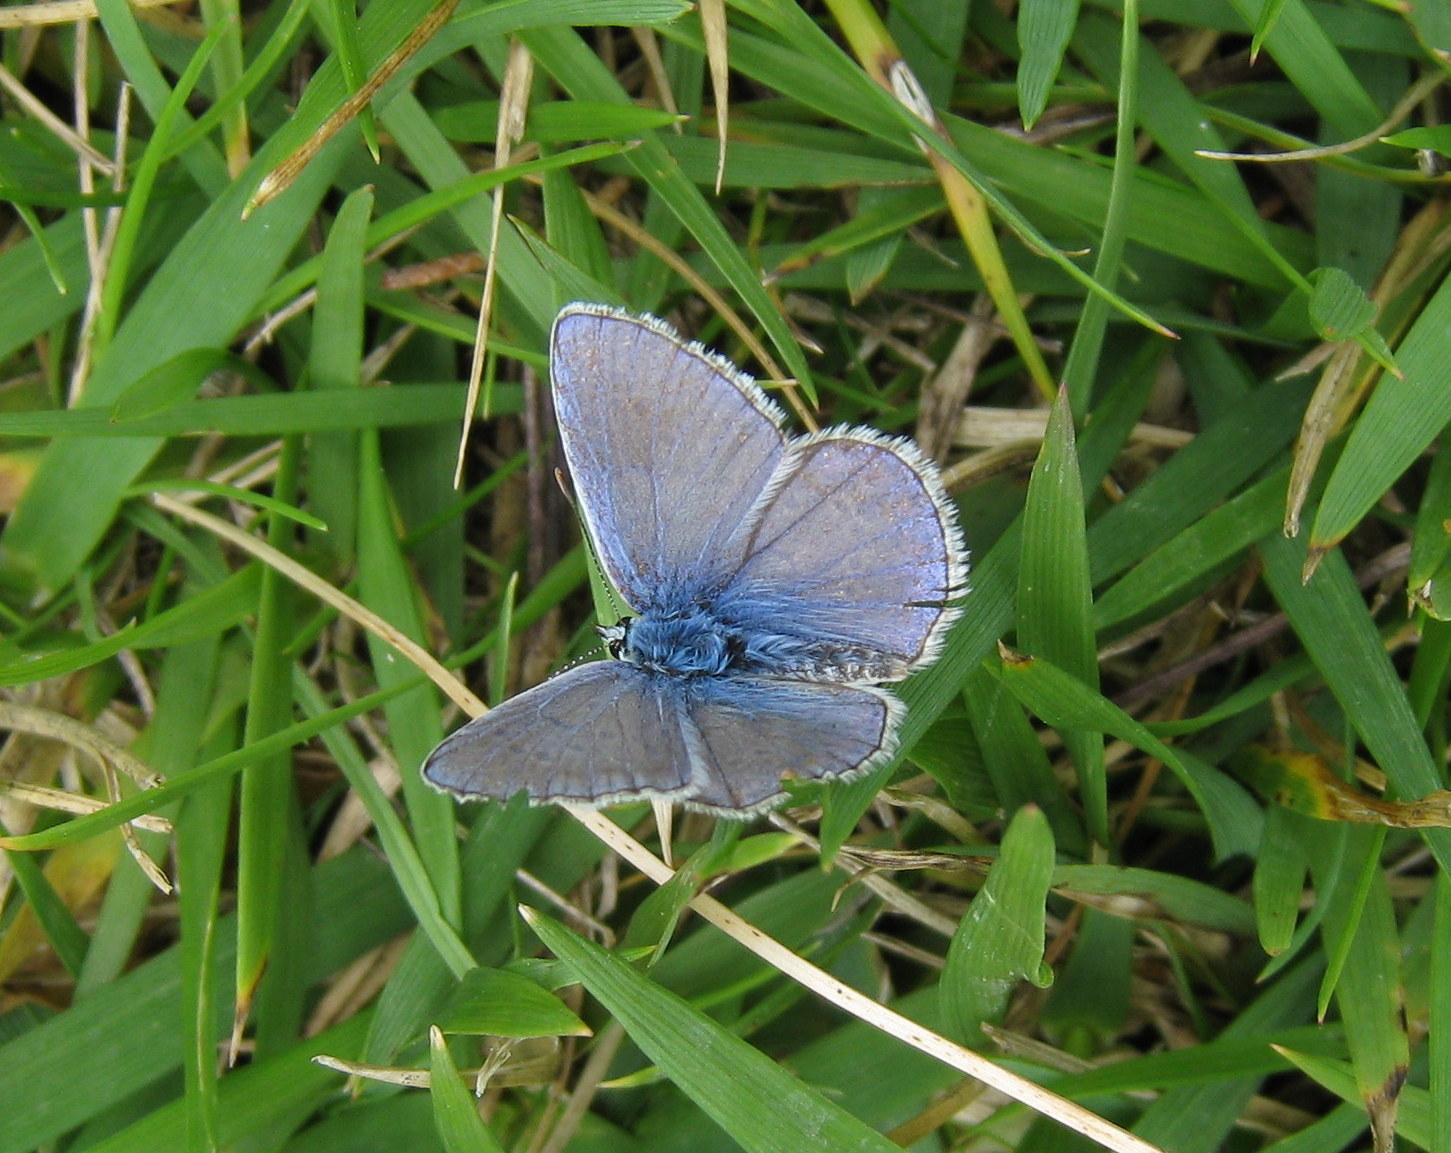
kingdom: Animalia
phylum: Arthropoda
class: Insecta
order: Lepidoptera
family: Lycaenidae
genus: Polyommatus
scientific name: Polyommatus icarus
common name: Common blue
